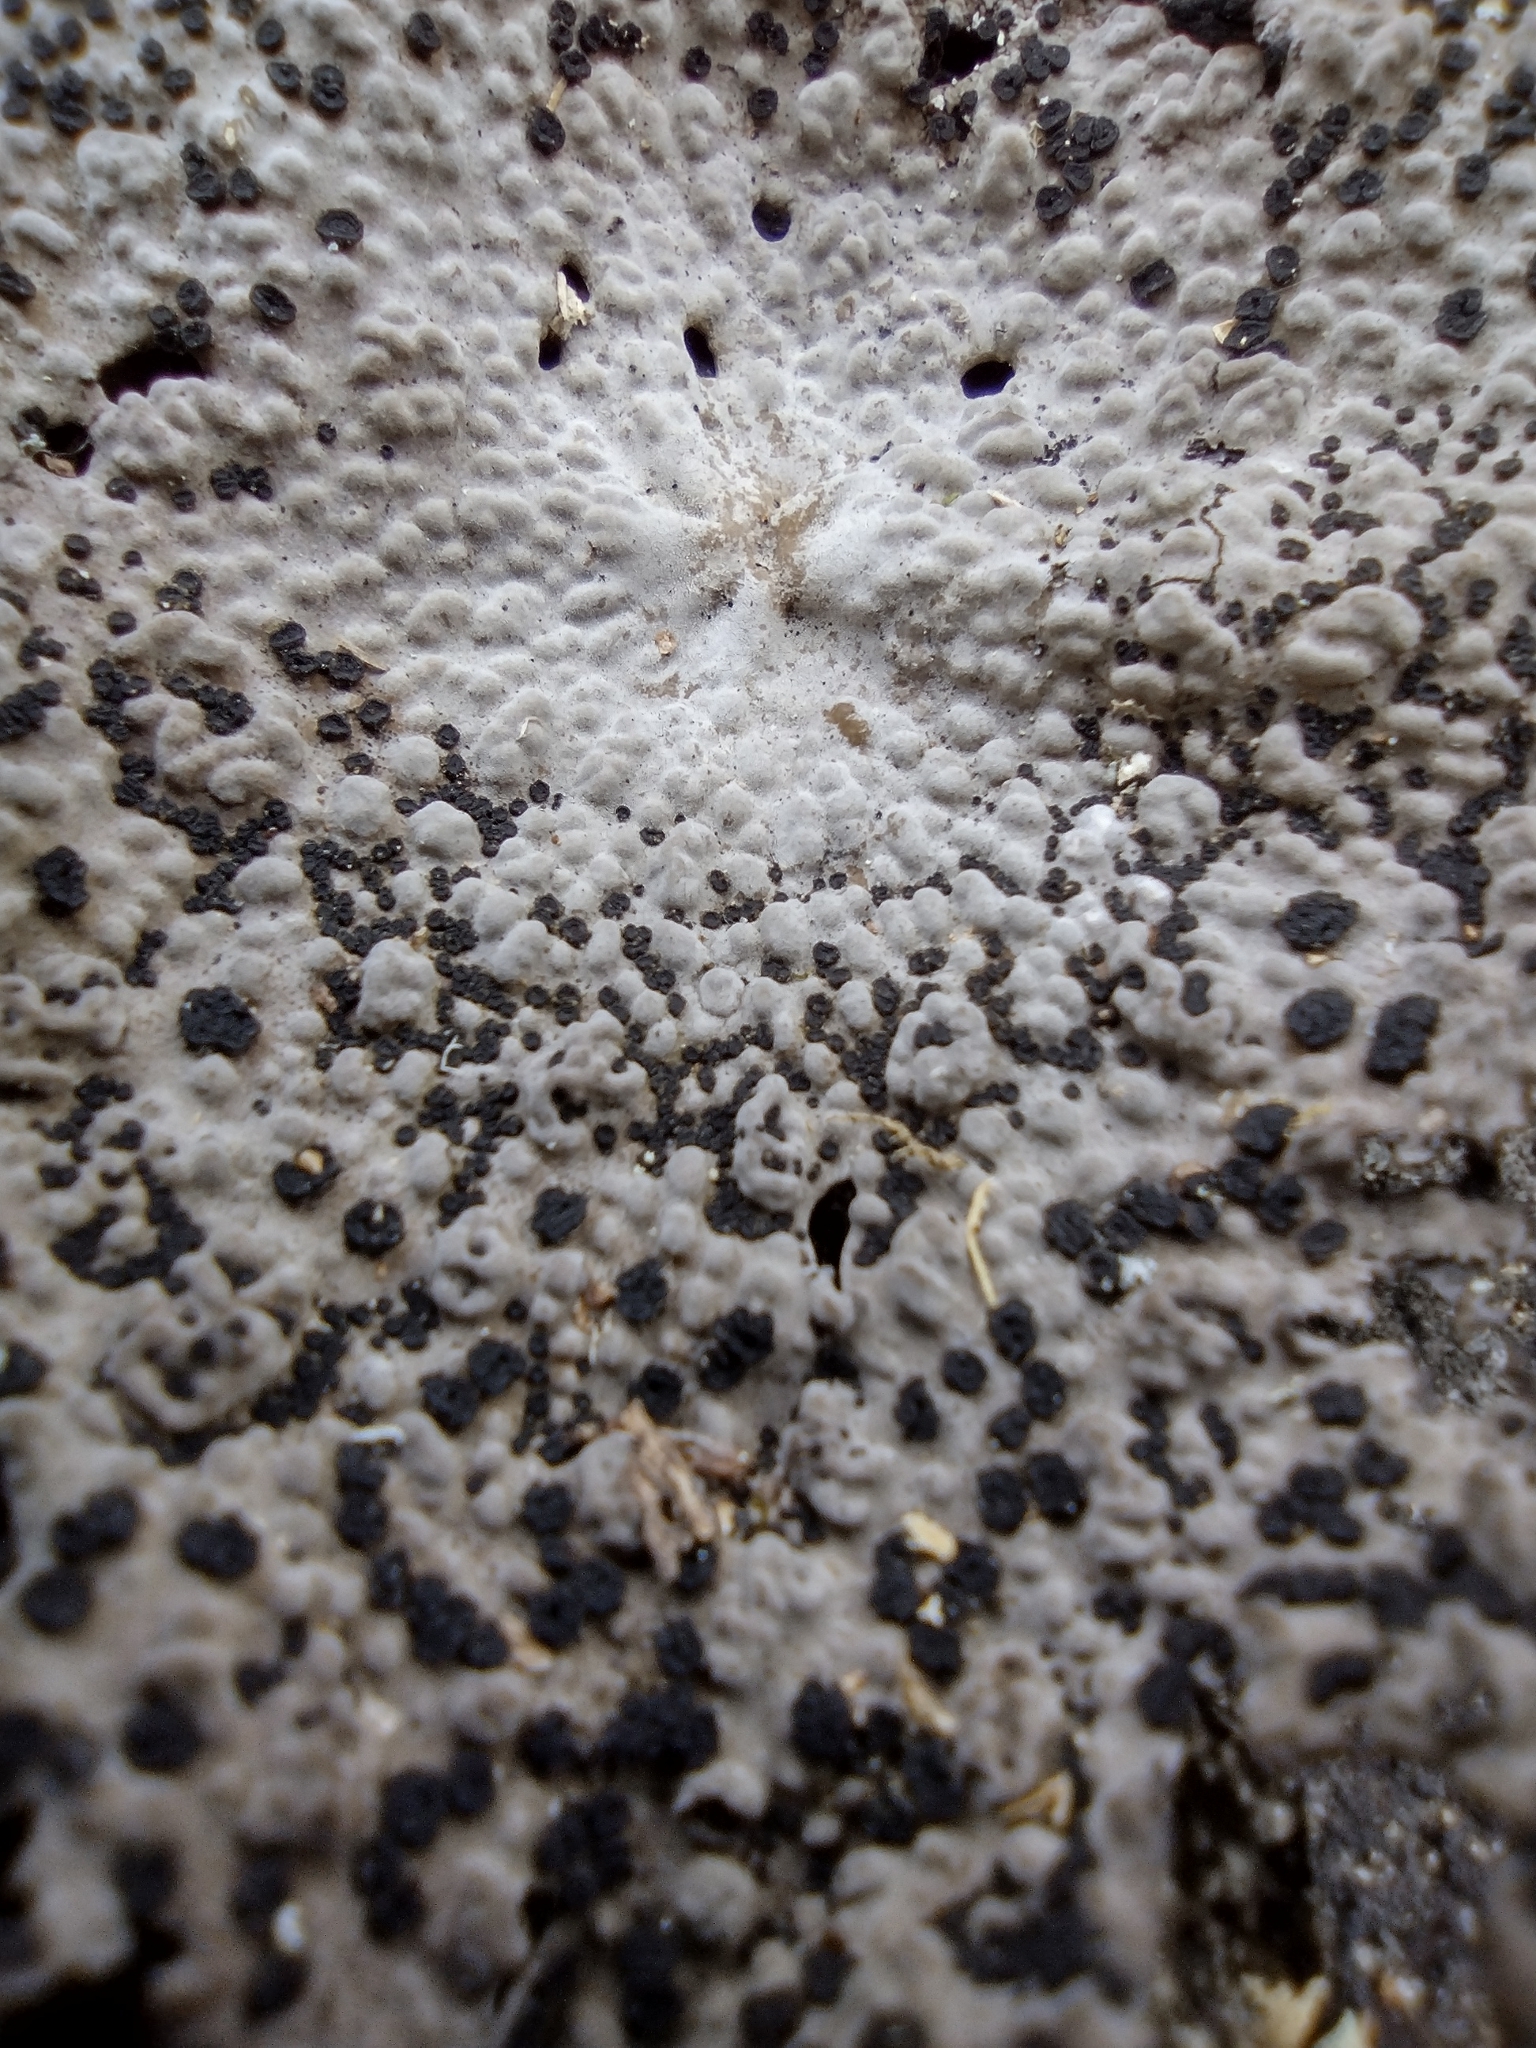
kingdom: Fungi
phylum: Ascomycota
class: Lecanoromycetes
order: Umbilicariales
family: Umbilicariaceae
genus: Lasallia
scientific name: Lasallia papulosa
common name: Common toadskin lichen
